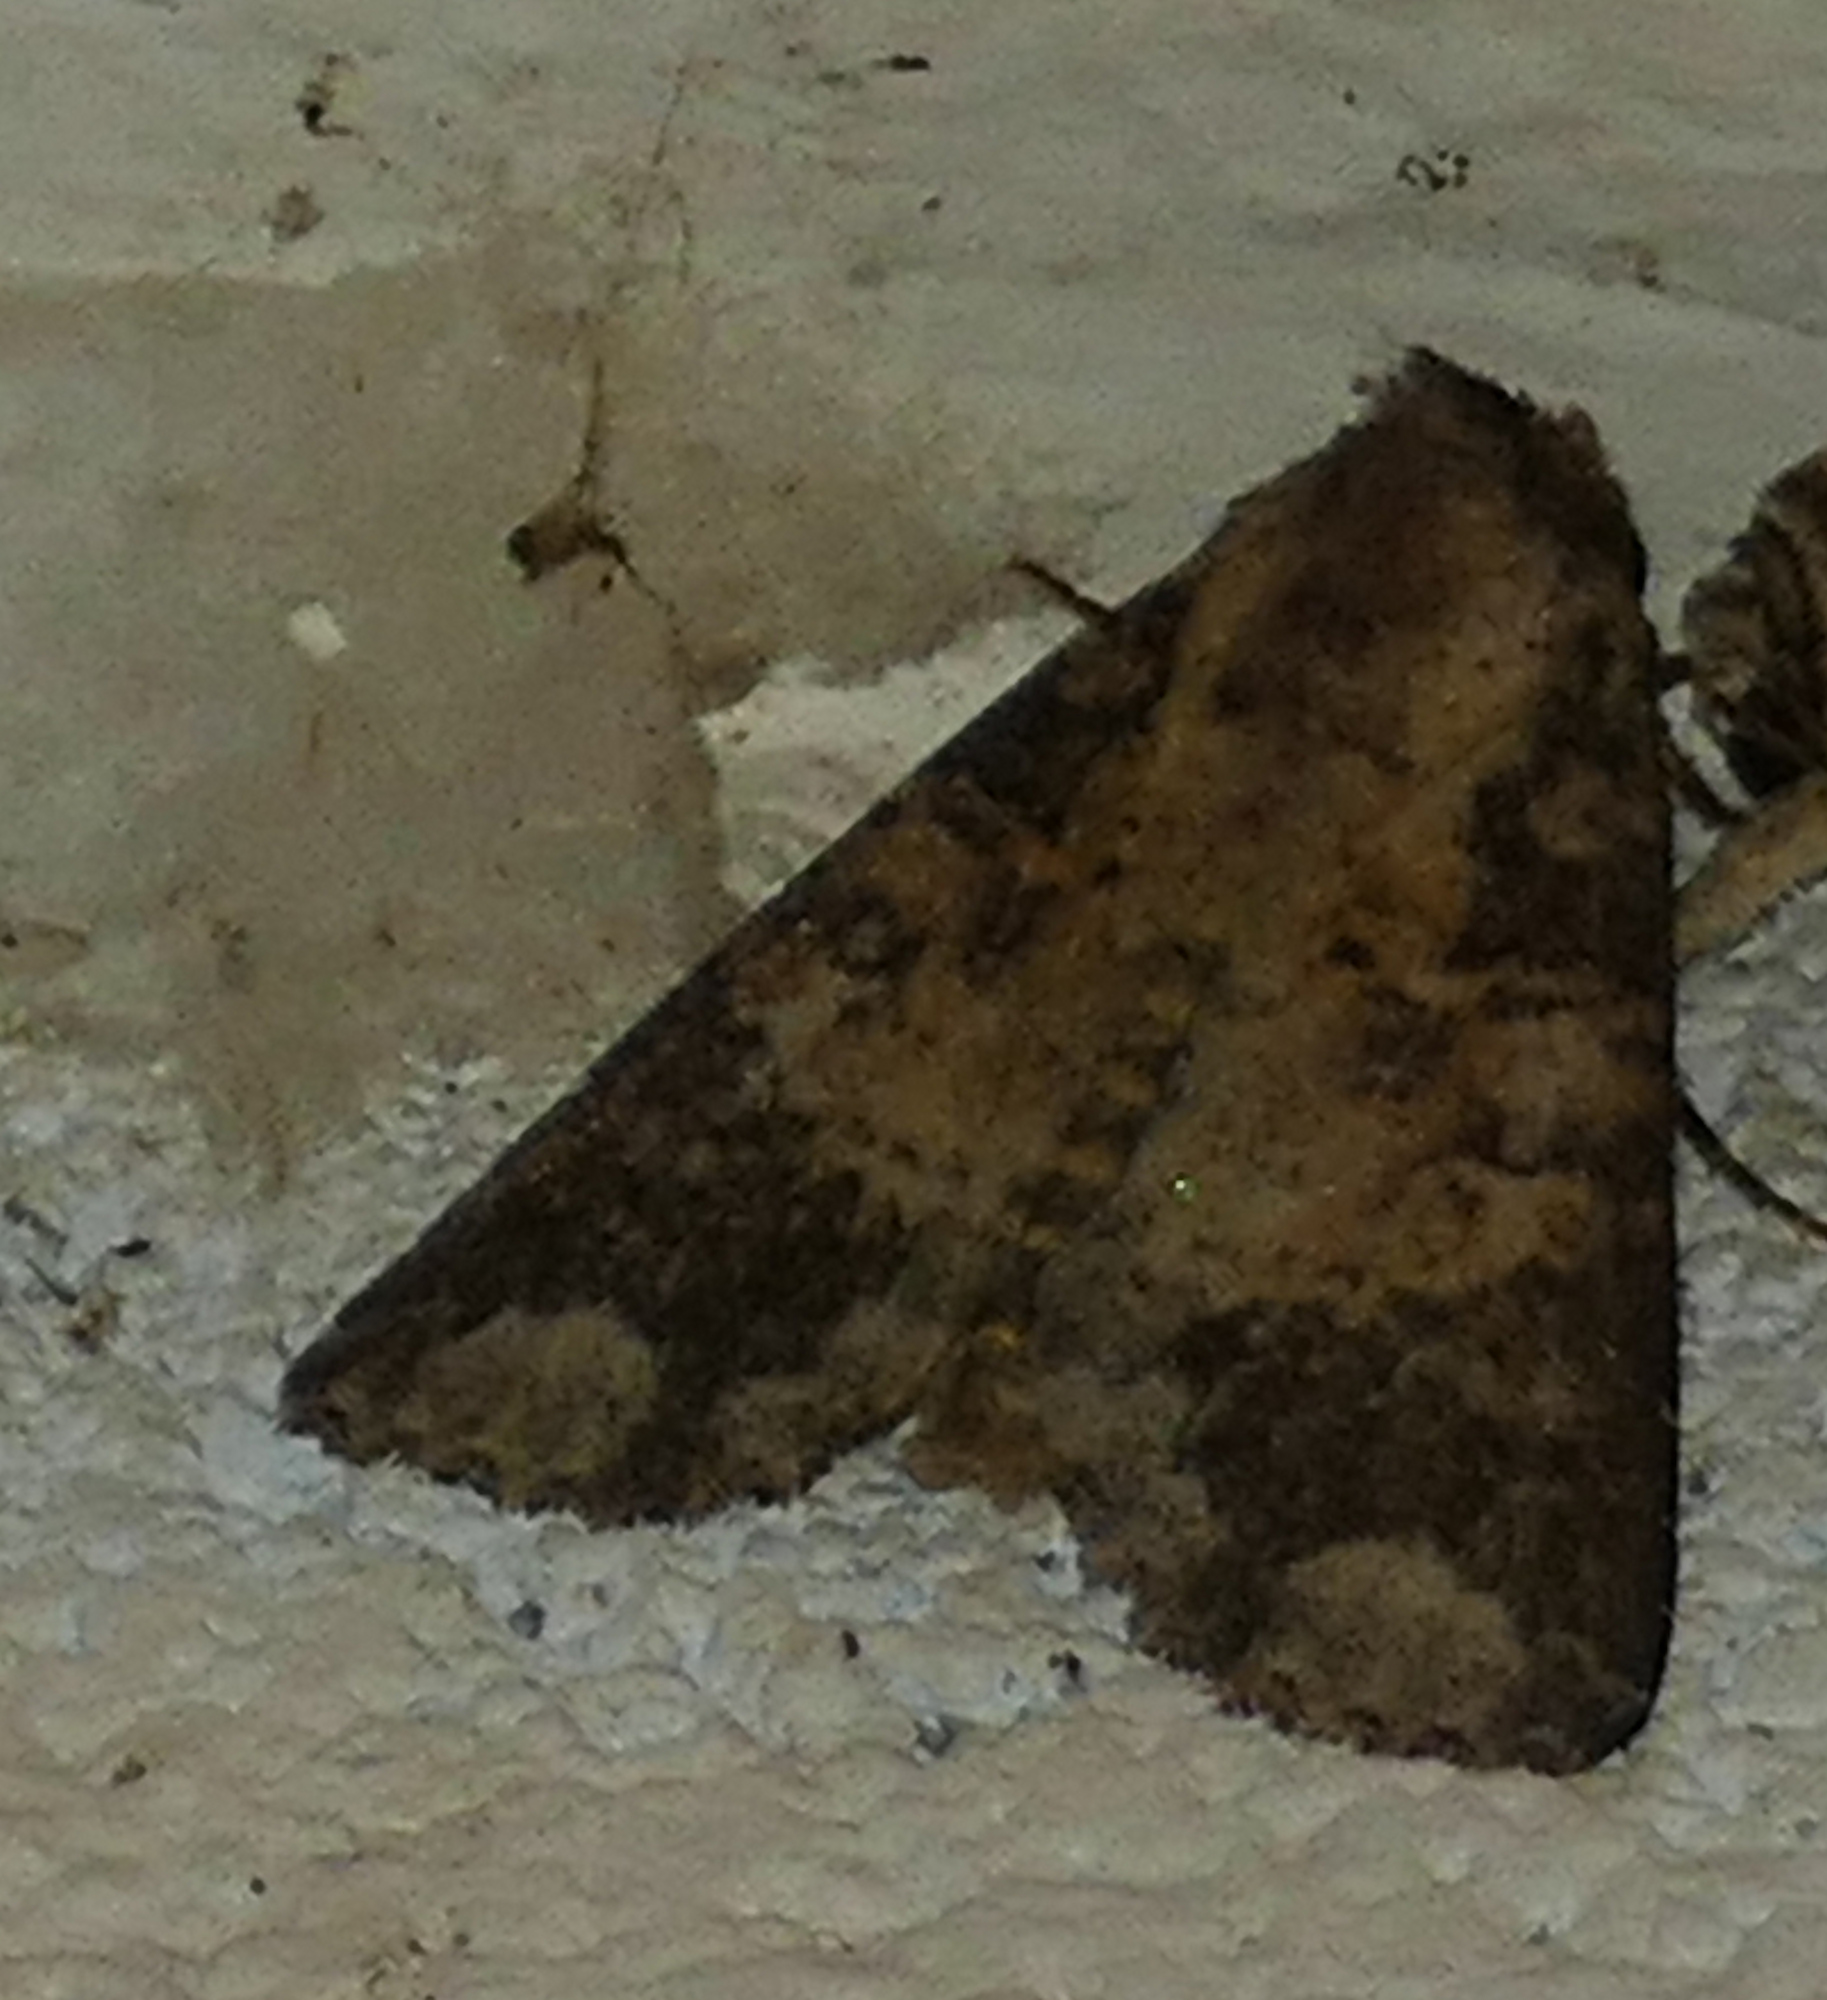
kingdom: Animalia
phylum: Arthropoda
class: Insecta
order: Lepidoptera
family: Noctuidae
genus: Condica
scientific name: Condica confederata
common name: The confederate
